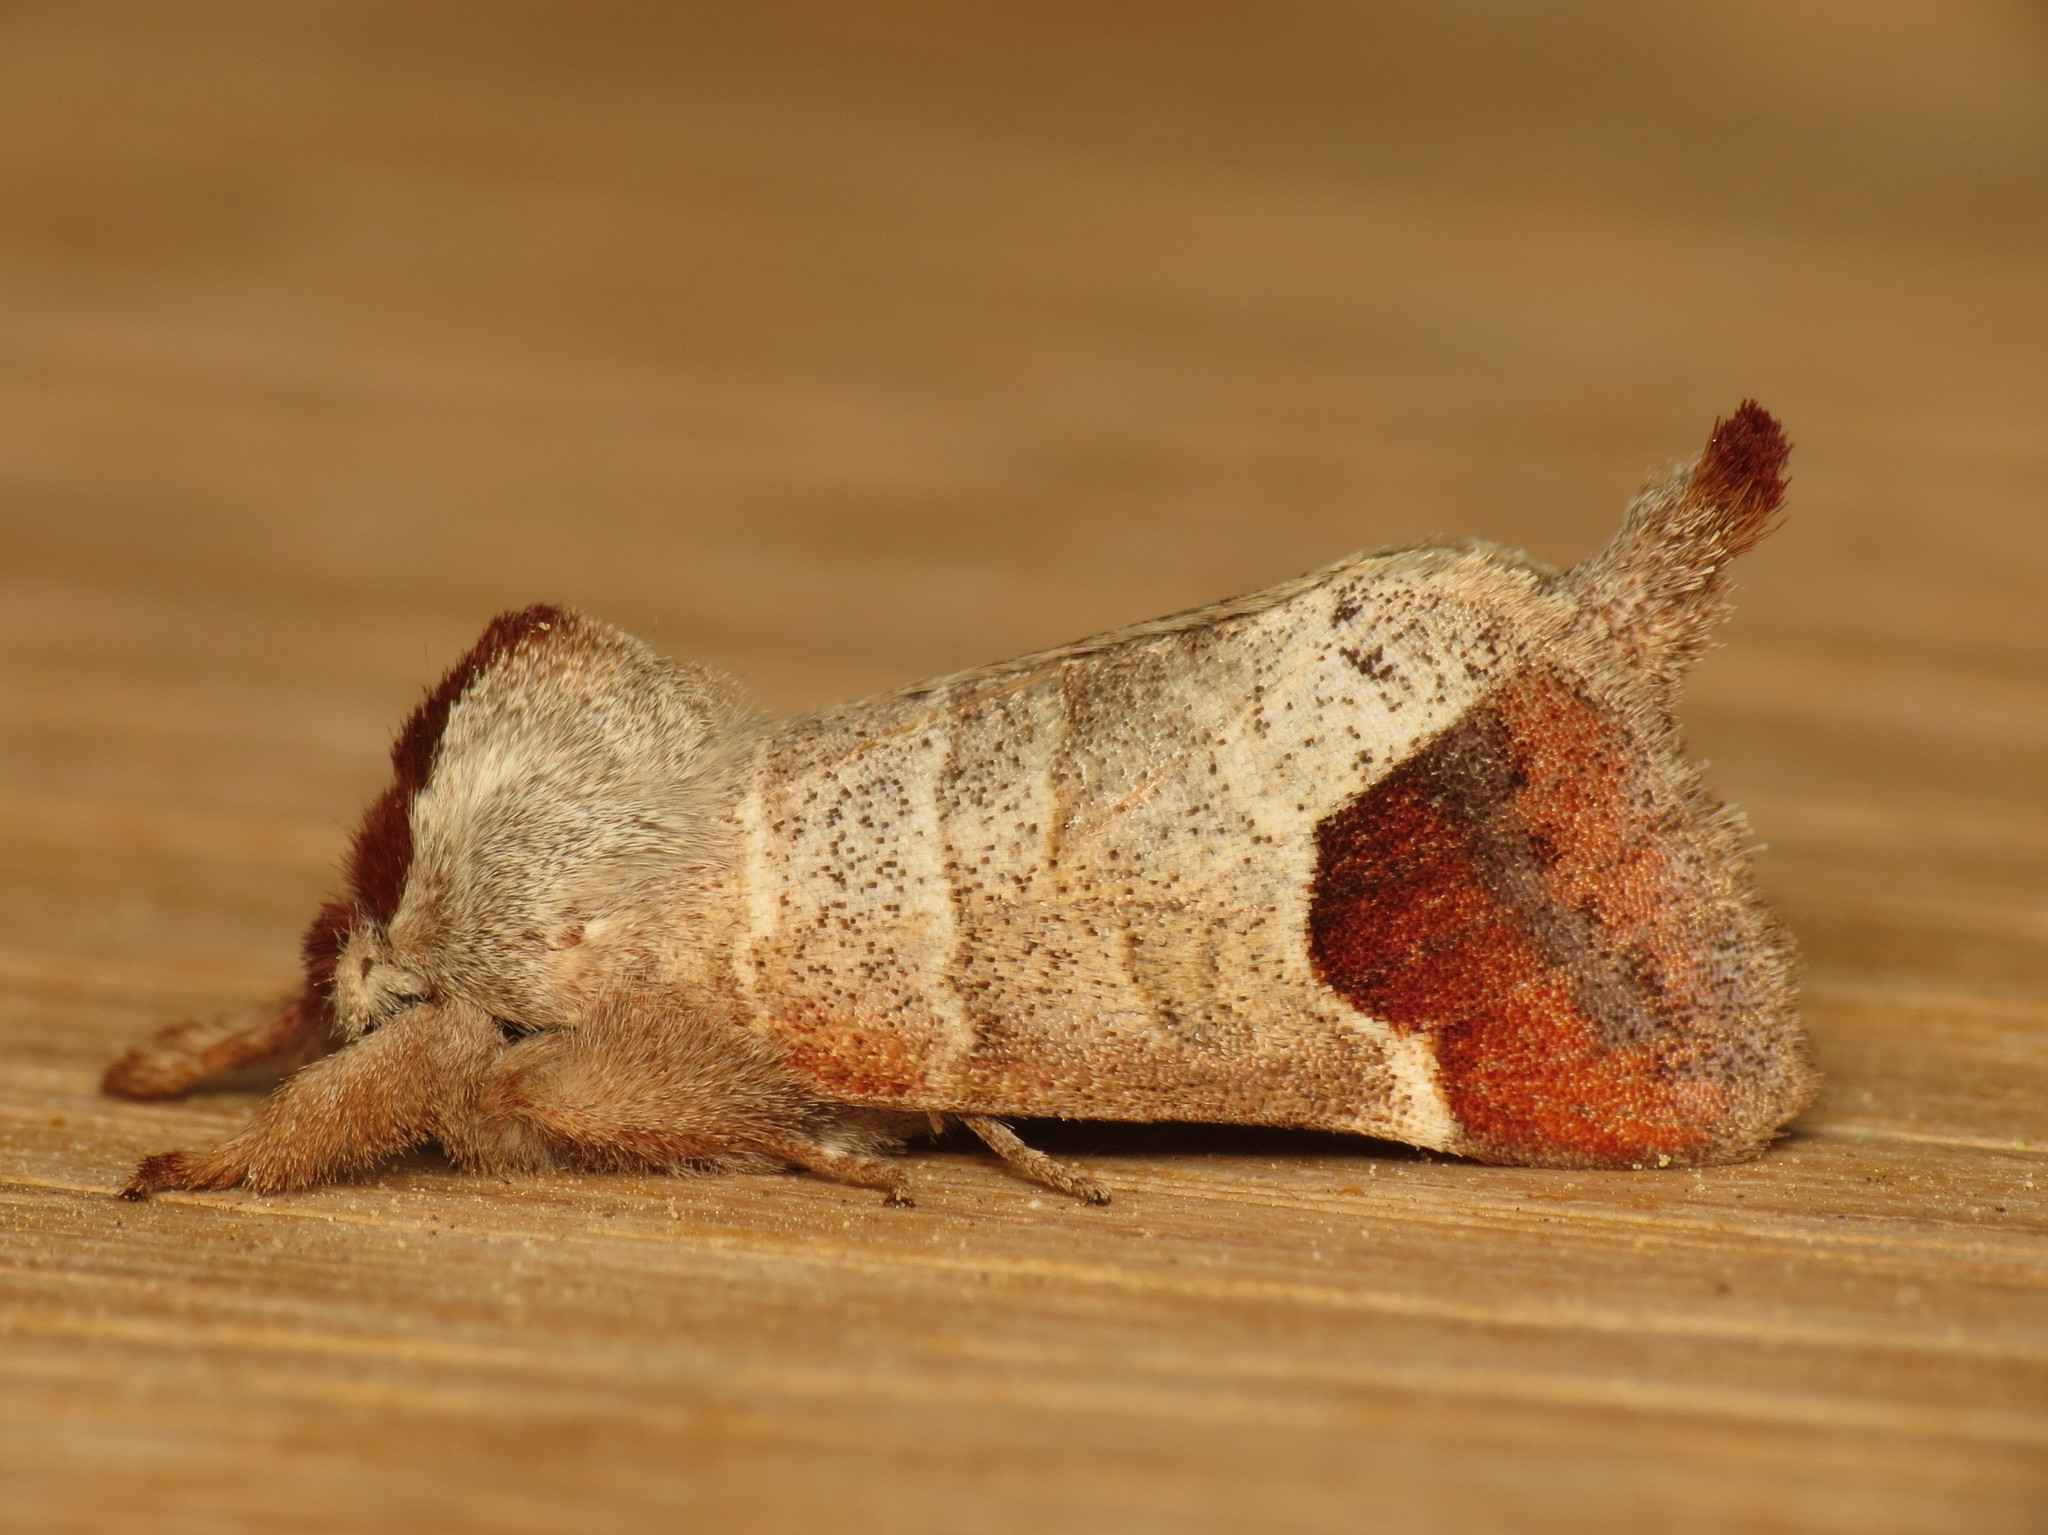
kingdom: Animalia
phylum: Arthropoda
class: Insecta
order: Lepidoptera
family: Notodontidae
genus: Clostera
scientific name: Clostera curtula
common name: Chocolate-tip
